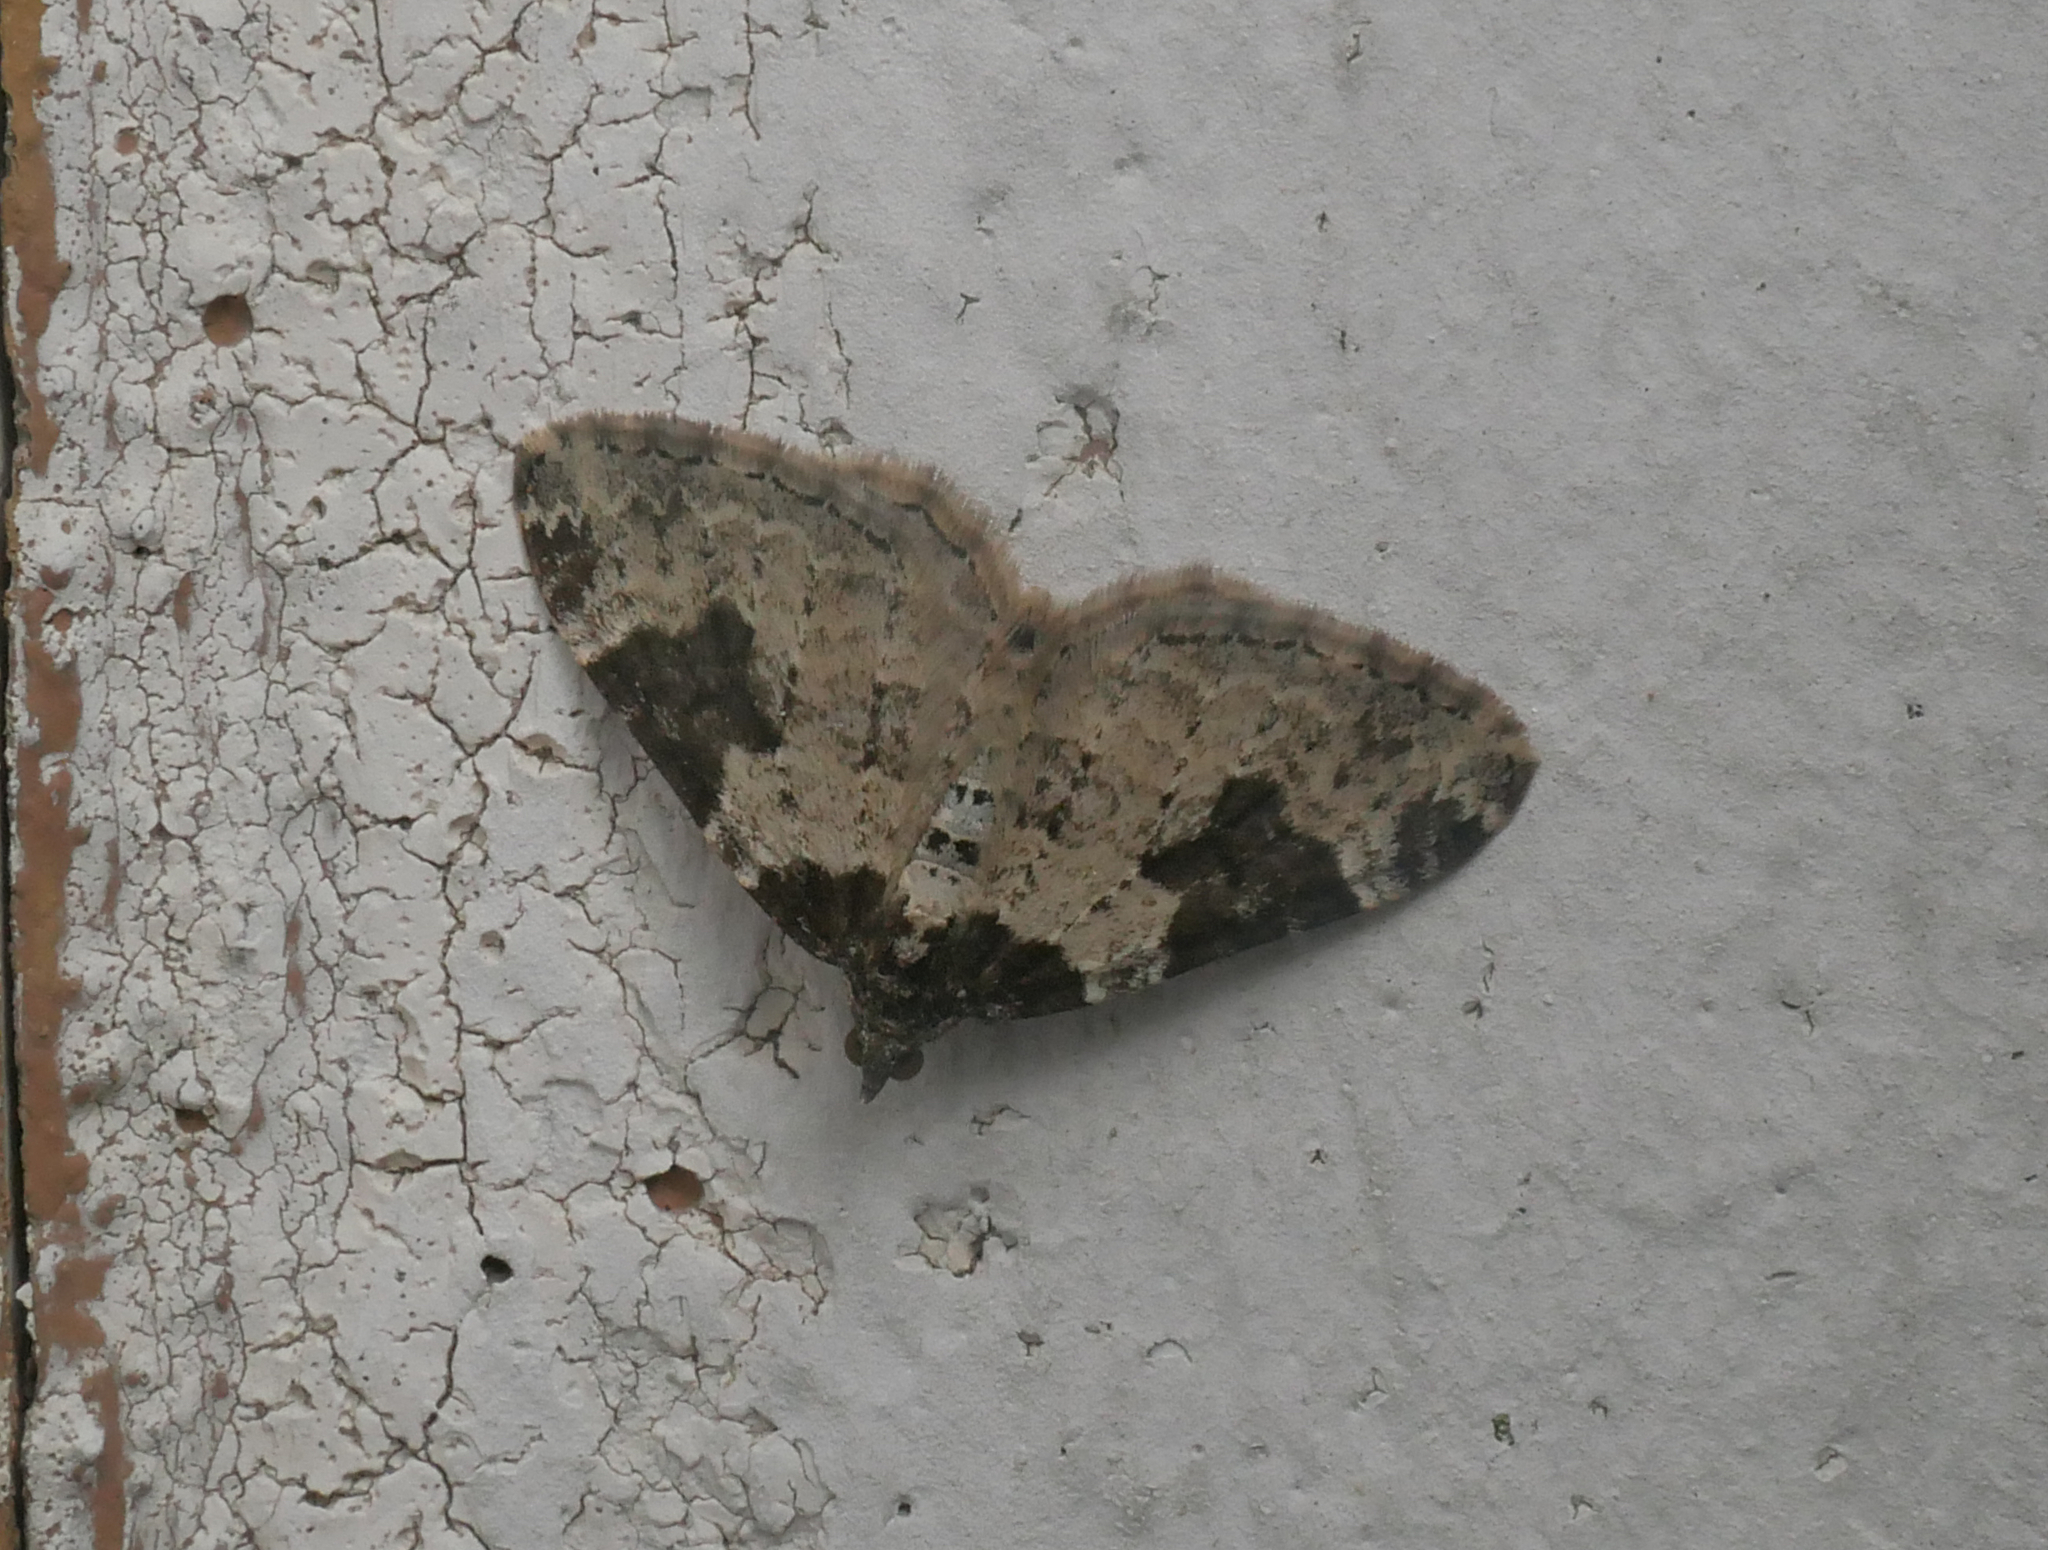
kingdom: Animalia
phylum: Arthropoda
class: Insecta
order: Lepidoptera
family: Geometridae
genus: Xanthorhoe
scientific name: Xanthorhoe fluctuata
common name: Garden carpet
